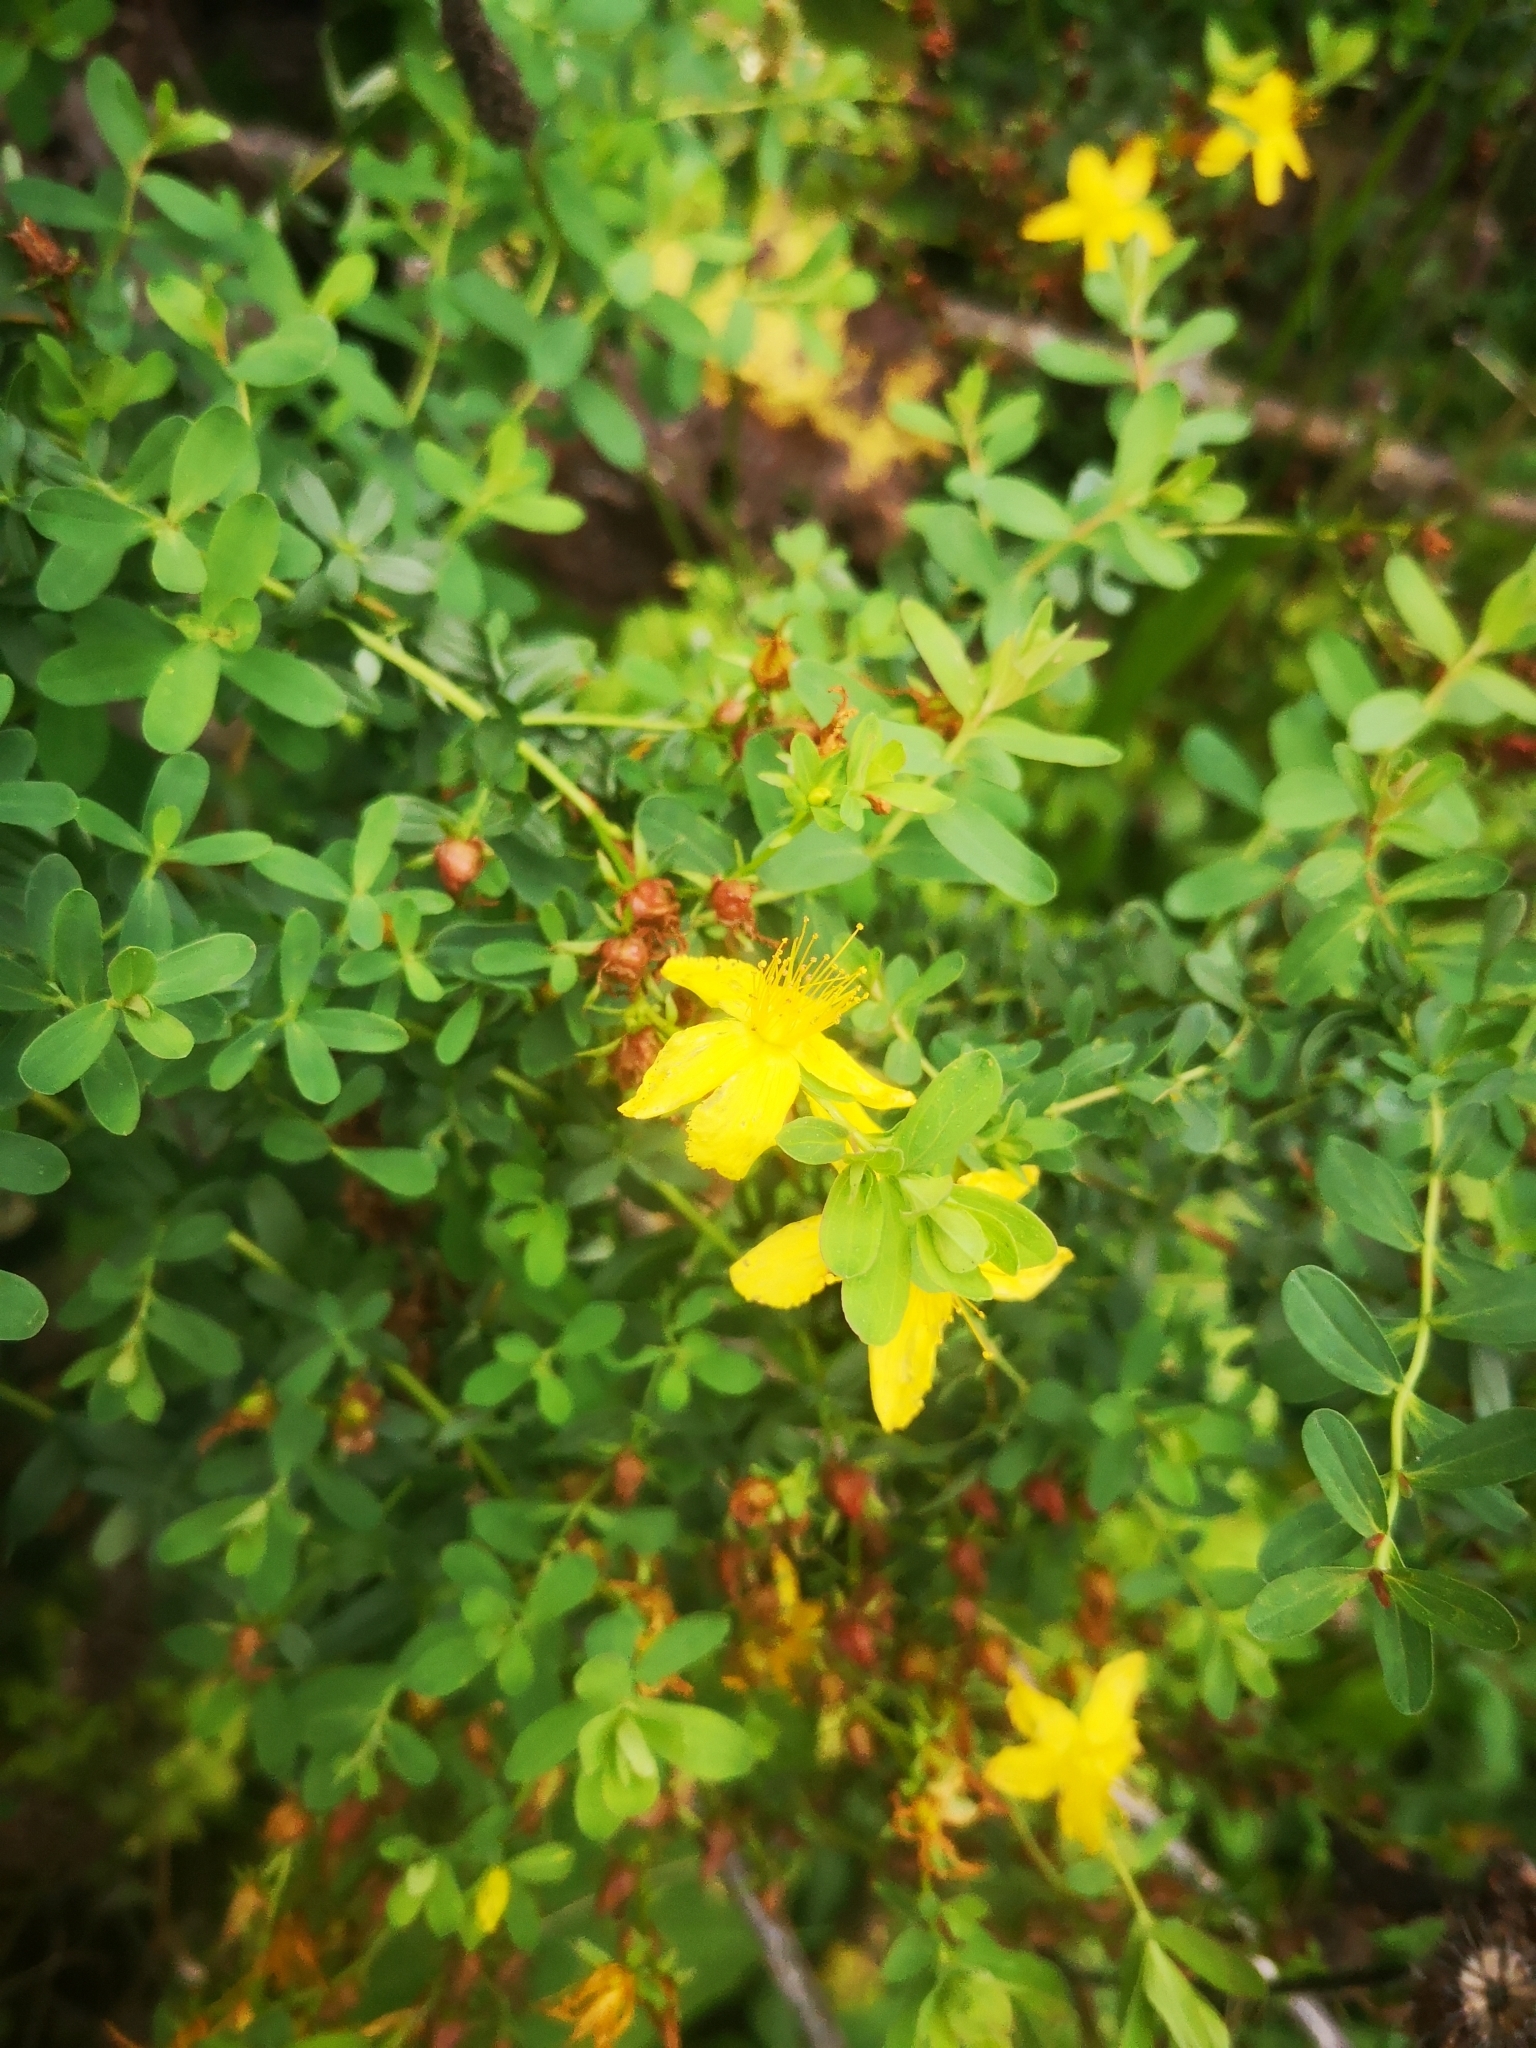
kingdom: Plantae
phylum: Tracheophyta
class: Magnoliopsida
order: Malpighiales
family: Hypericaceae
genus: Hypericum
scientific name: Hypericum perforatum
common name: Common st. johnswort
